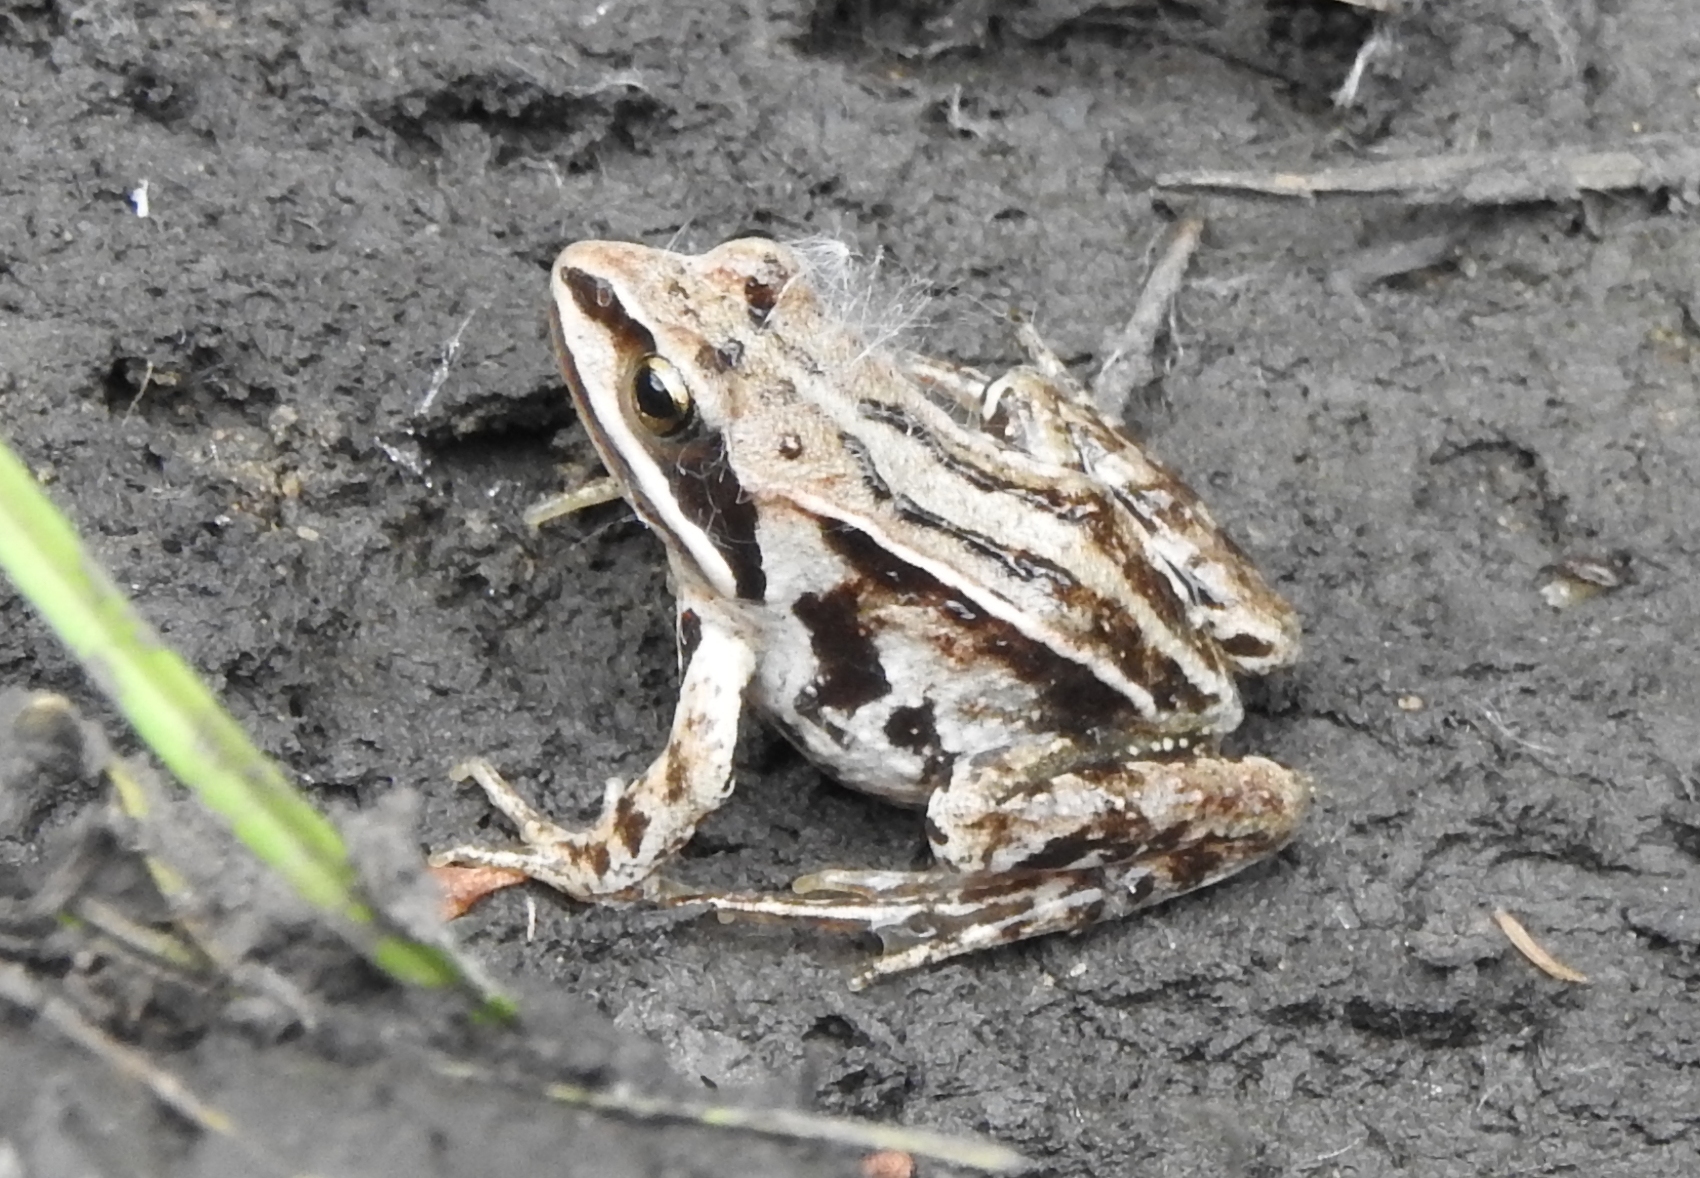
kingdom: Animalia
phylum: Chordata
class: Amphibia
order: Anura
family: Ranidae
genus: Rana
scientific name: Rana amurensis
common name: Amur brown frog
